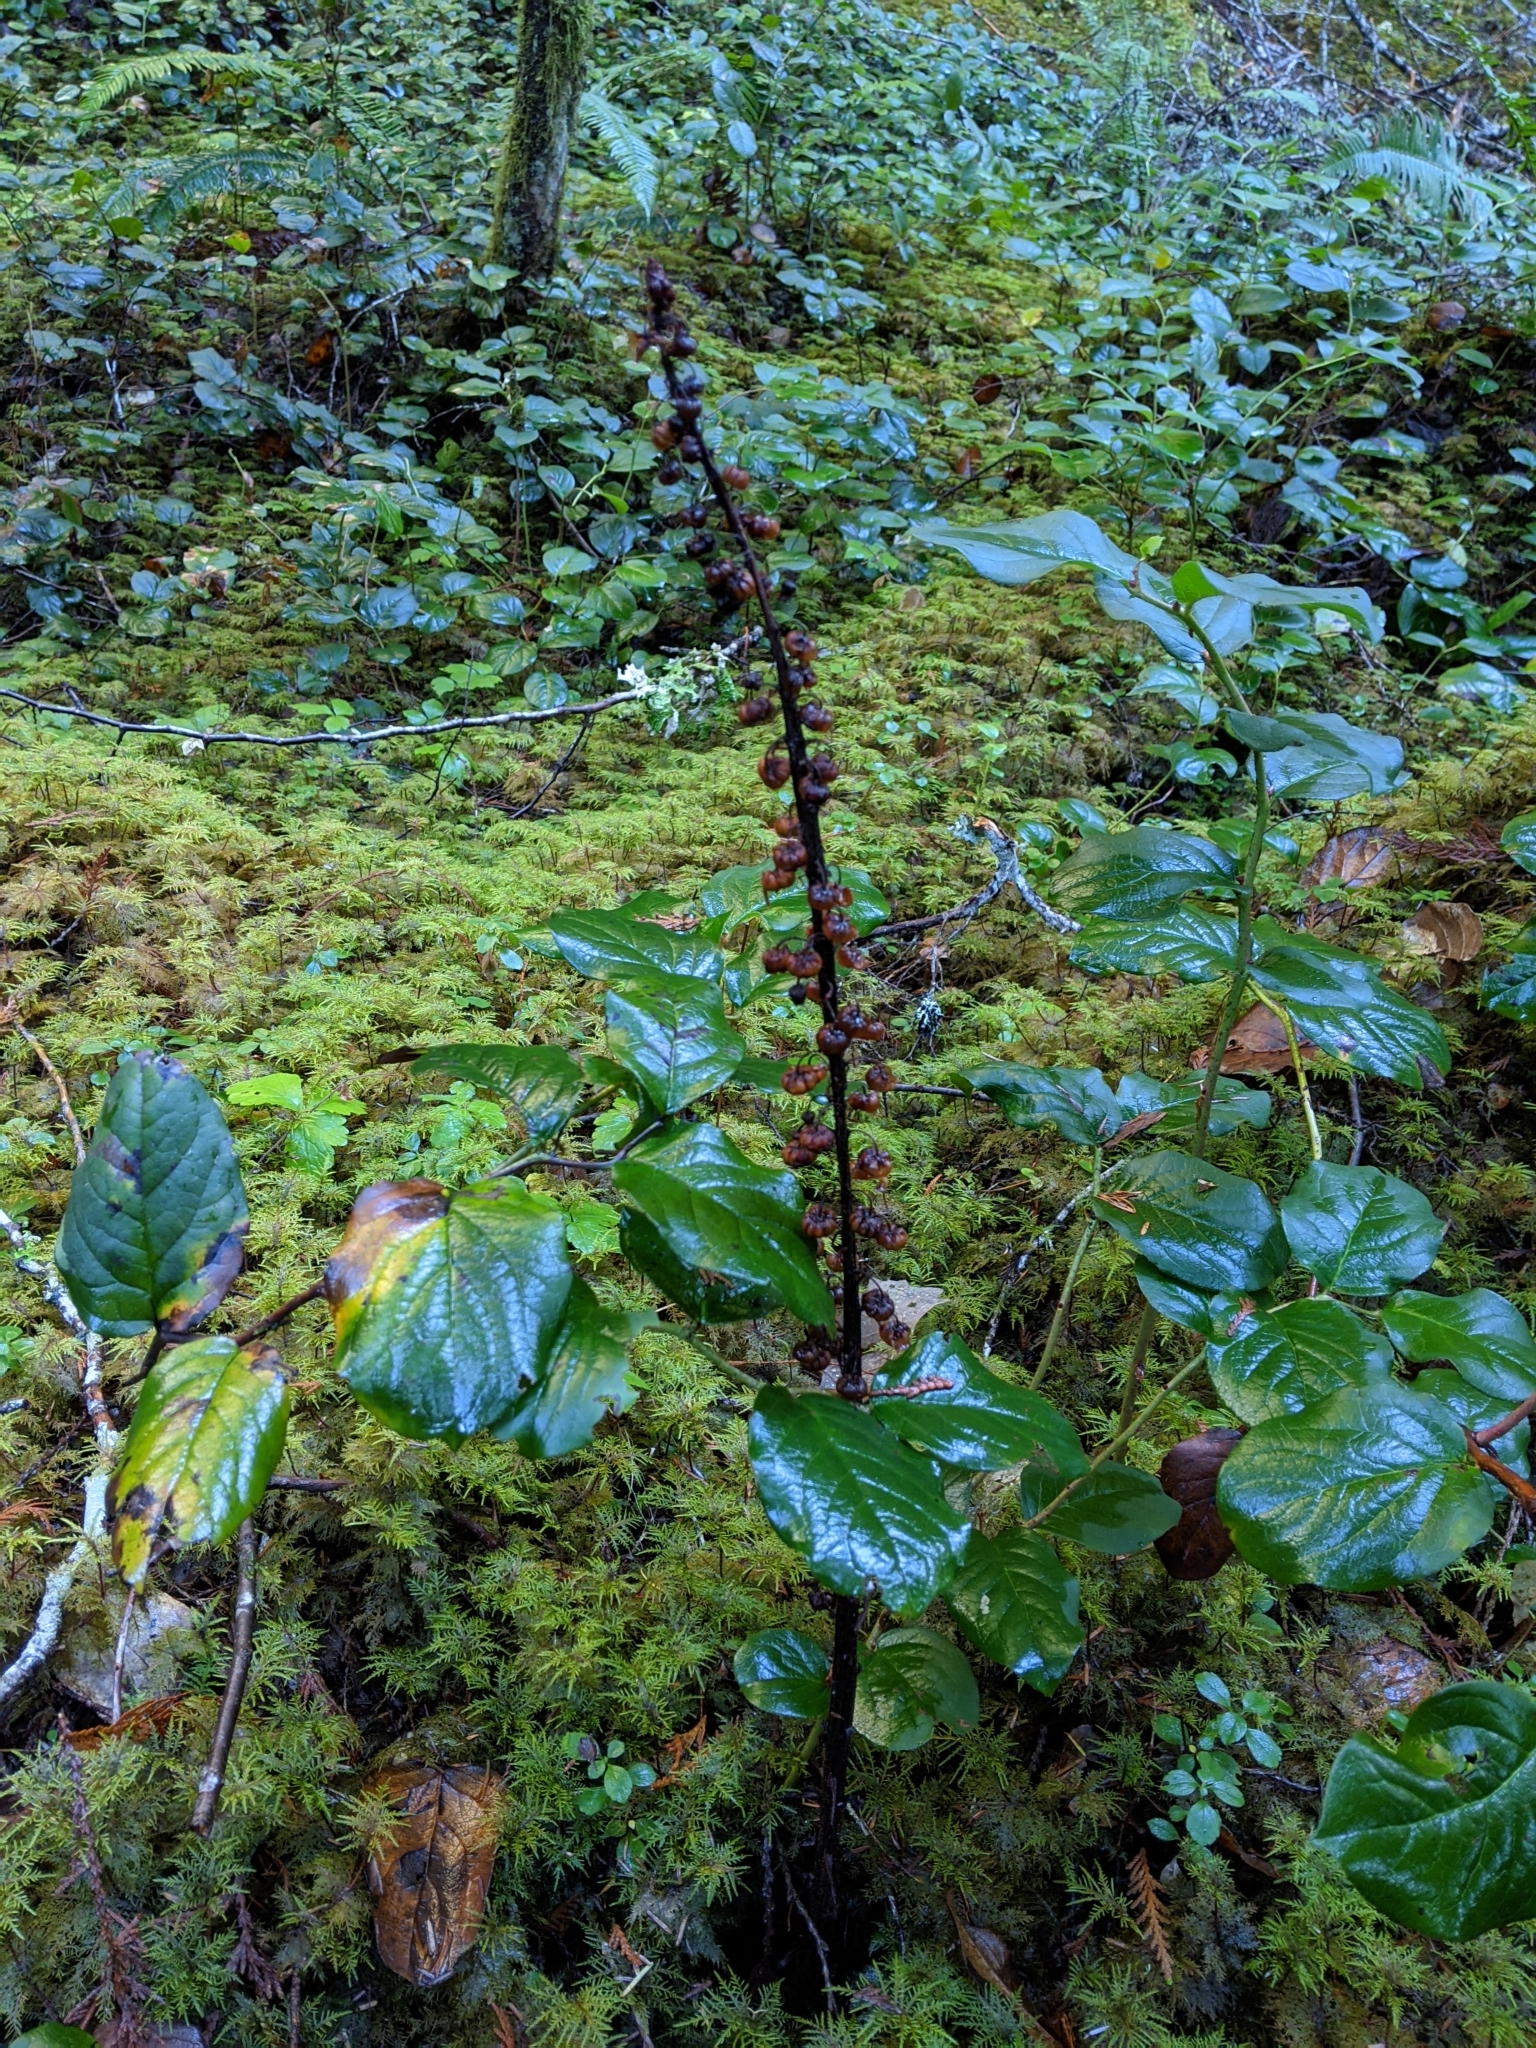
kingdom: Plantae
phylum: Tracheophyta
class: Magnoliopsida
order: Ericales
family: Ericaceae
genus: Pterospora
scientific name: Pterospora andromedea
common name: Giant bird's-nest
